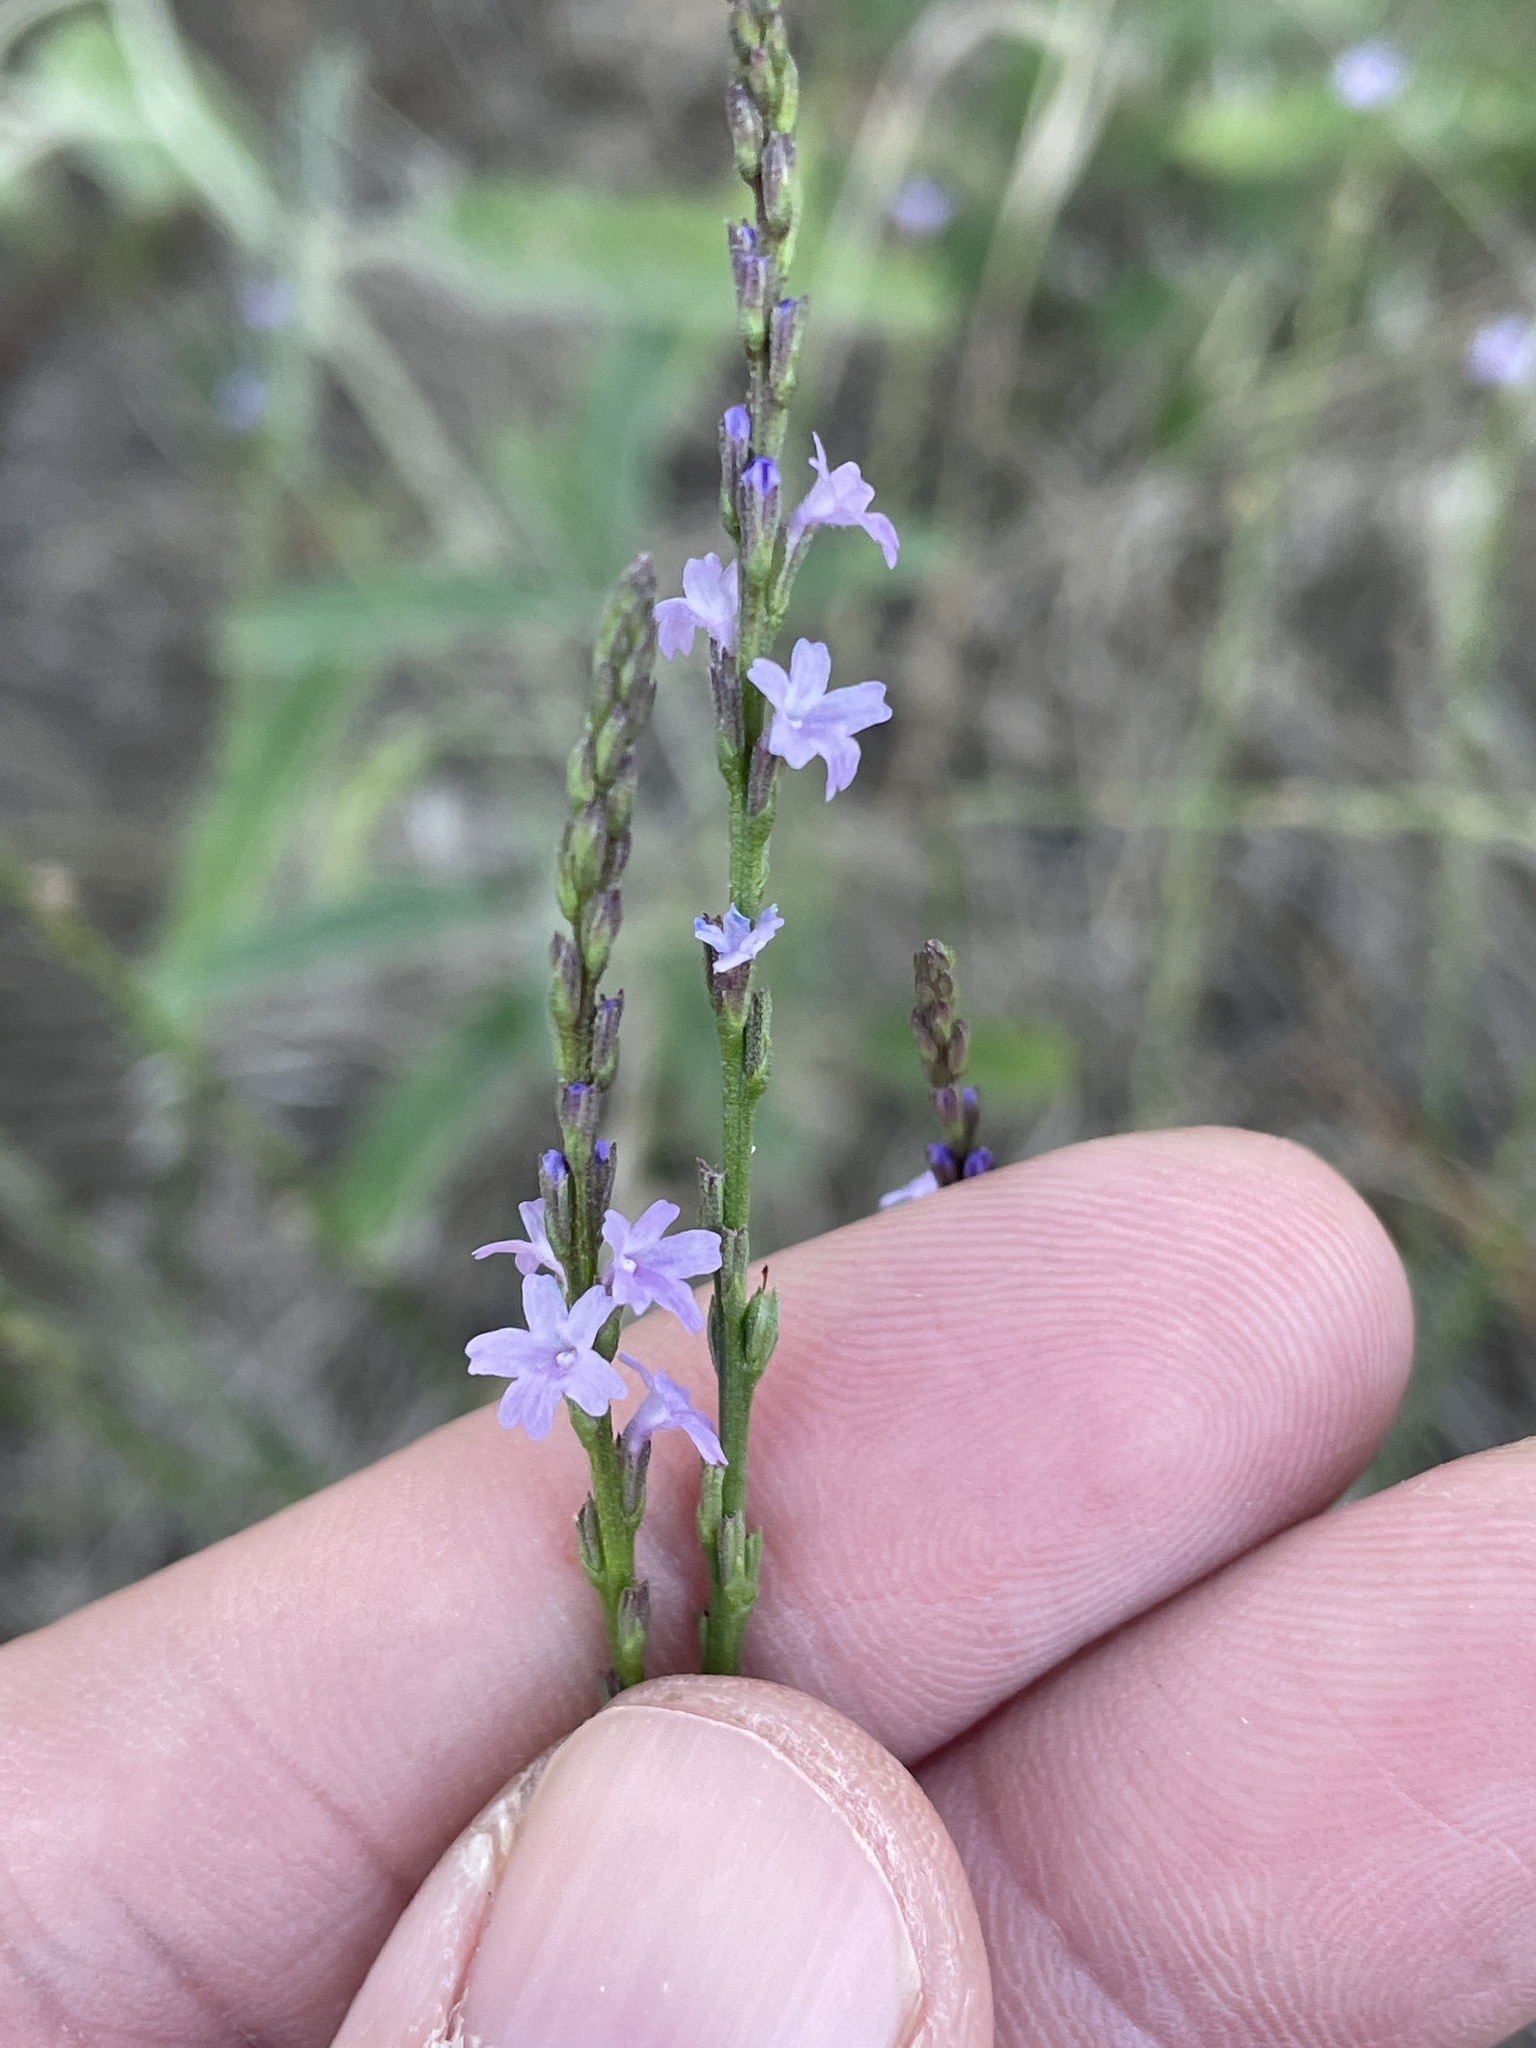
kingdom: Plantae
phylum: Tracheophyta
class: Magnoliopsida
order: Lamiales
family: Verbenaceae
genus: Verbena
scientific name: Verbena halei
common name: Texas vervain
